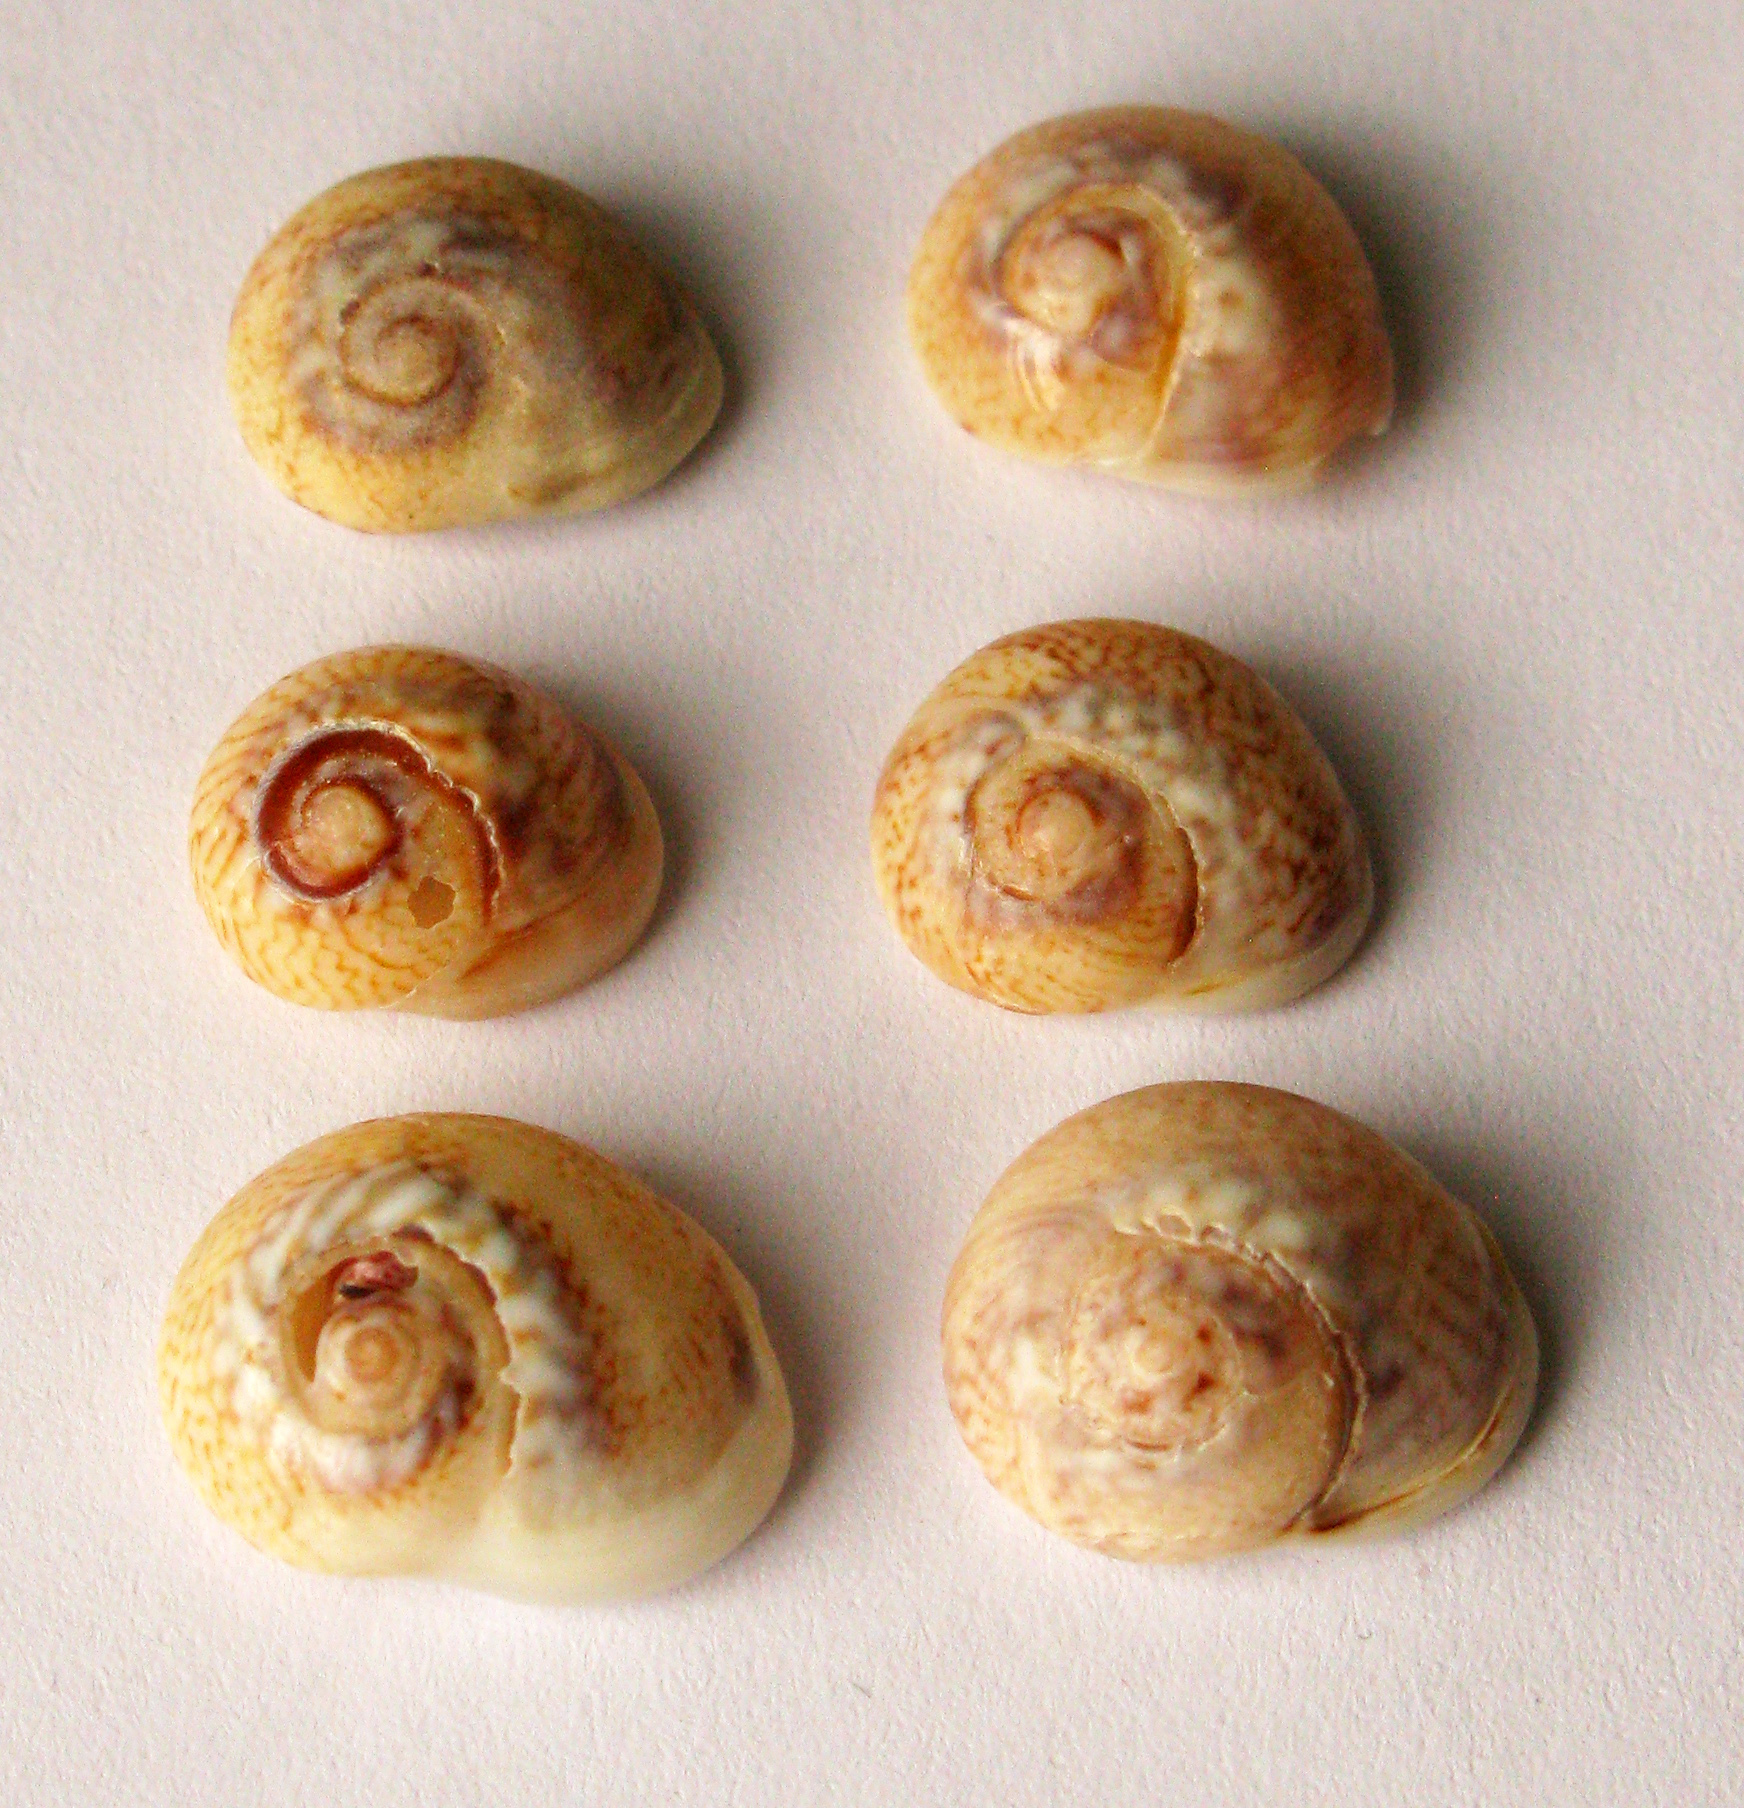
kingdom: Animalia
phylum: Mollusca
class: Gastropoda
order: Neogastropoda
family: Nassariidae
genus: Tritia
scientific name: Tritia pellucida
